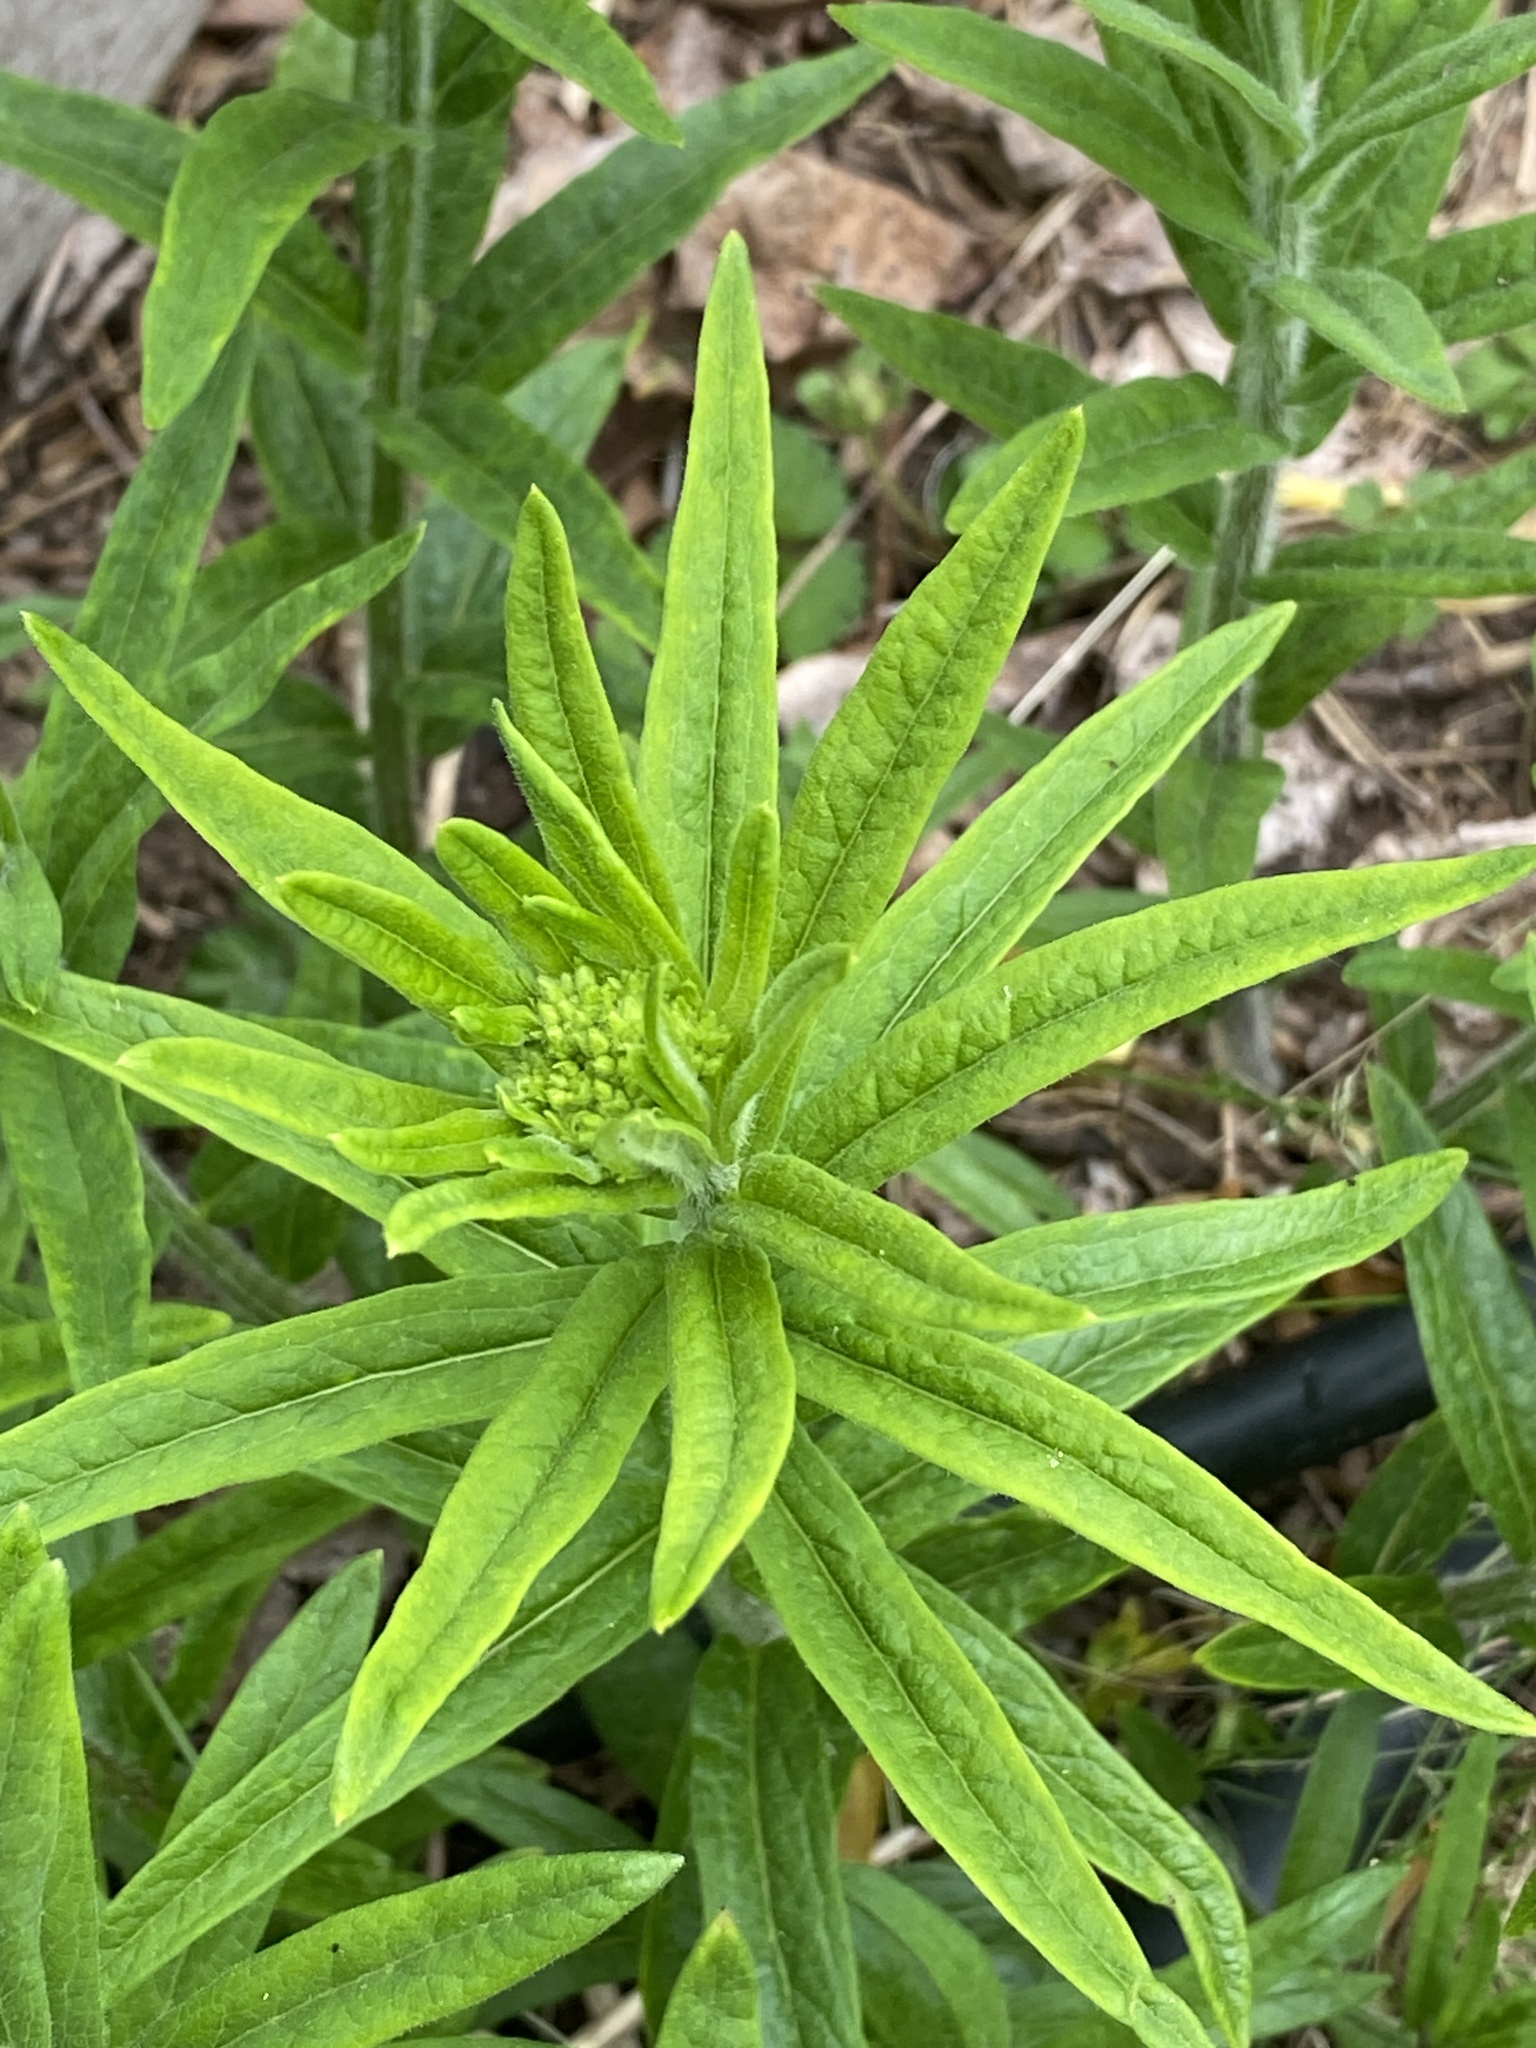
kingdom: Plantae
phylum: Tracheophyta
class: Magnoliopsida
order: Gentianales
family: Apocynaceae
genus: Asclepias
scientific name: Asclepias tuberosa
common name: Butterfly milkweed
